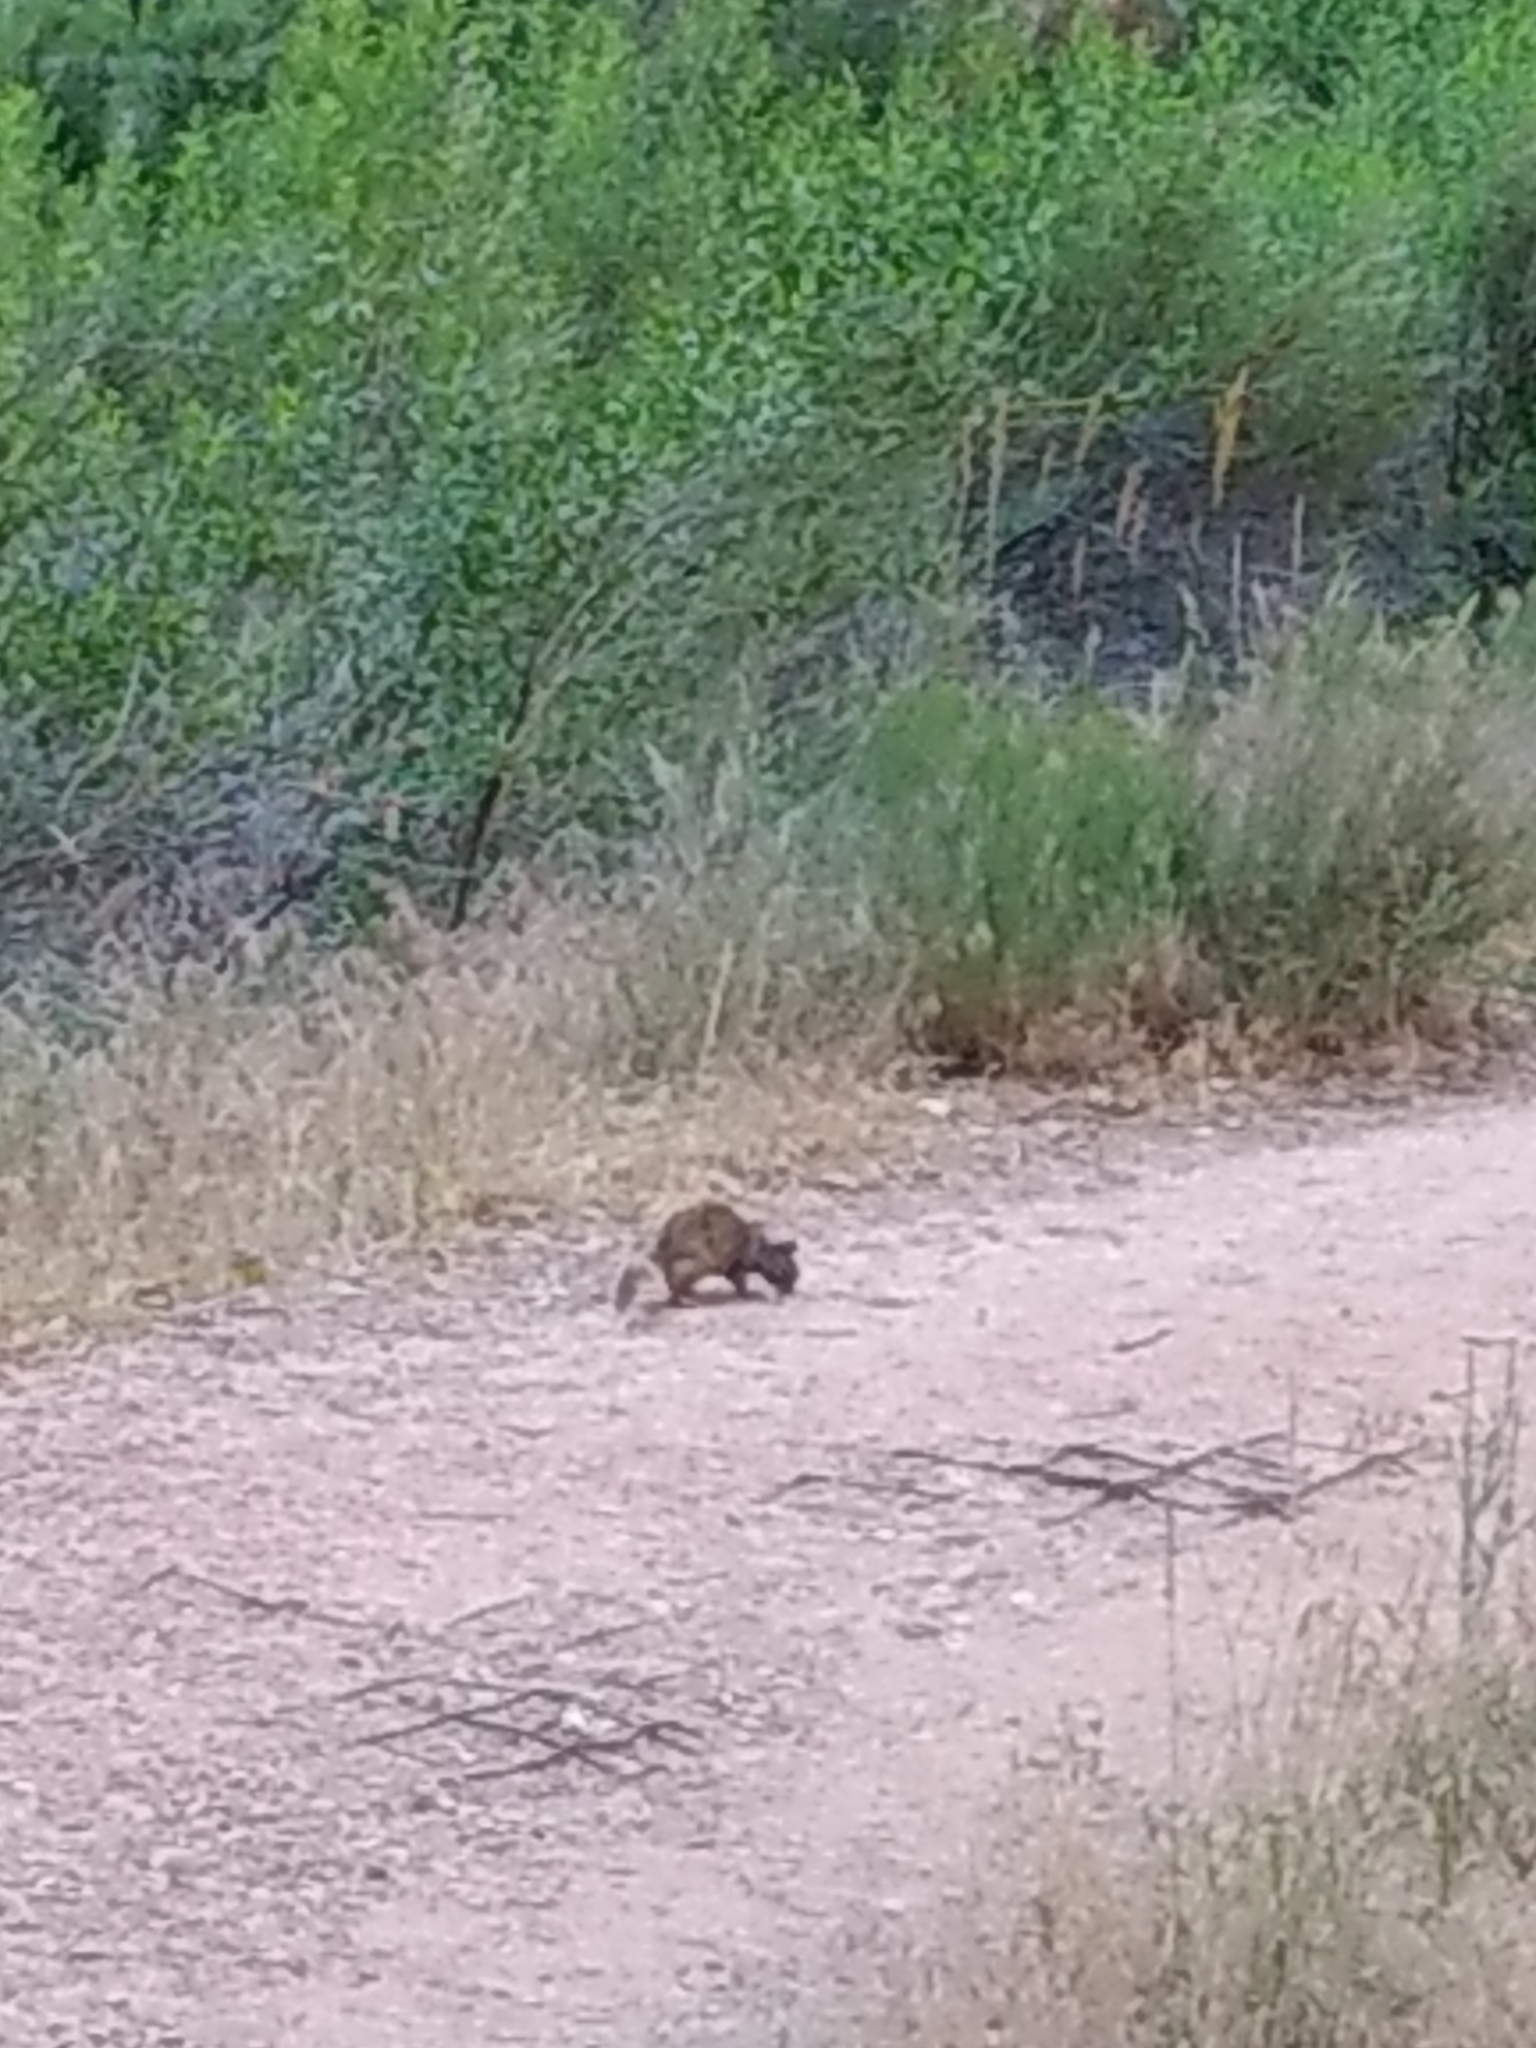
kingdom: Animalia
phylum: Chordata
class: Mammalia
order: Rodentia
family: Sciuridae
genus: Otospermophilus
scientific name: Otospermophilus variegatus
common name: Rock squirrel
